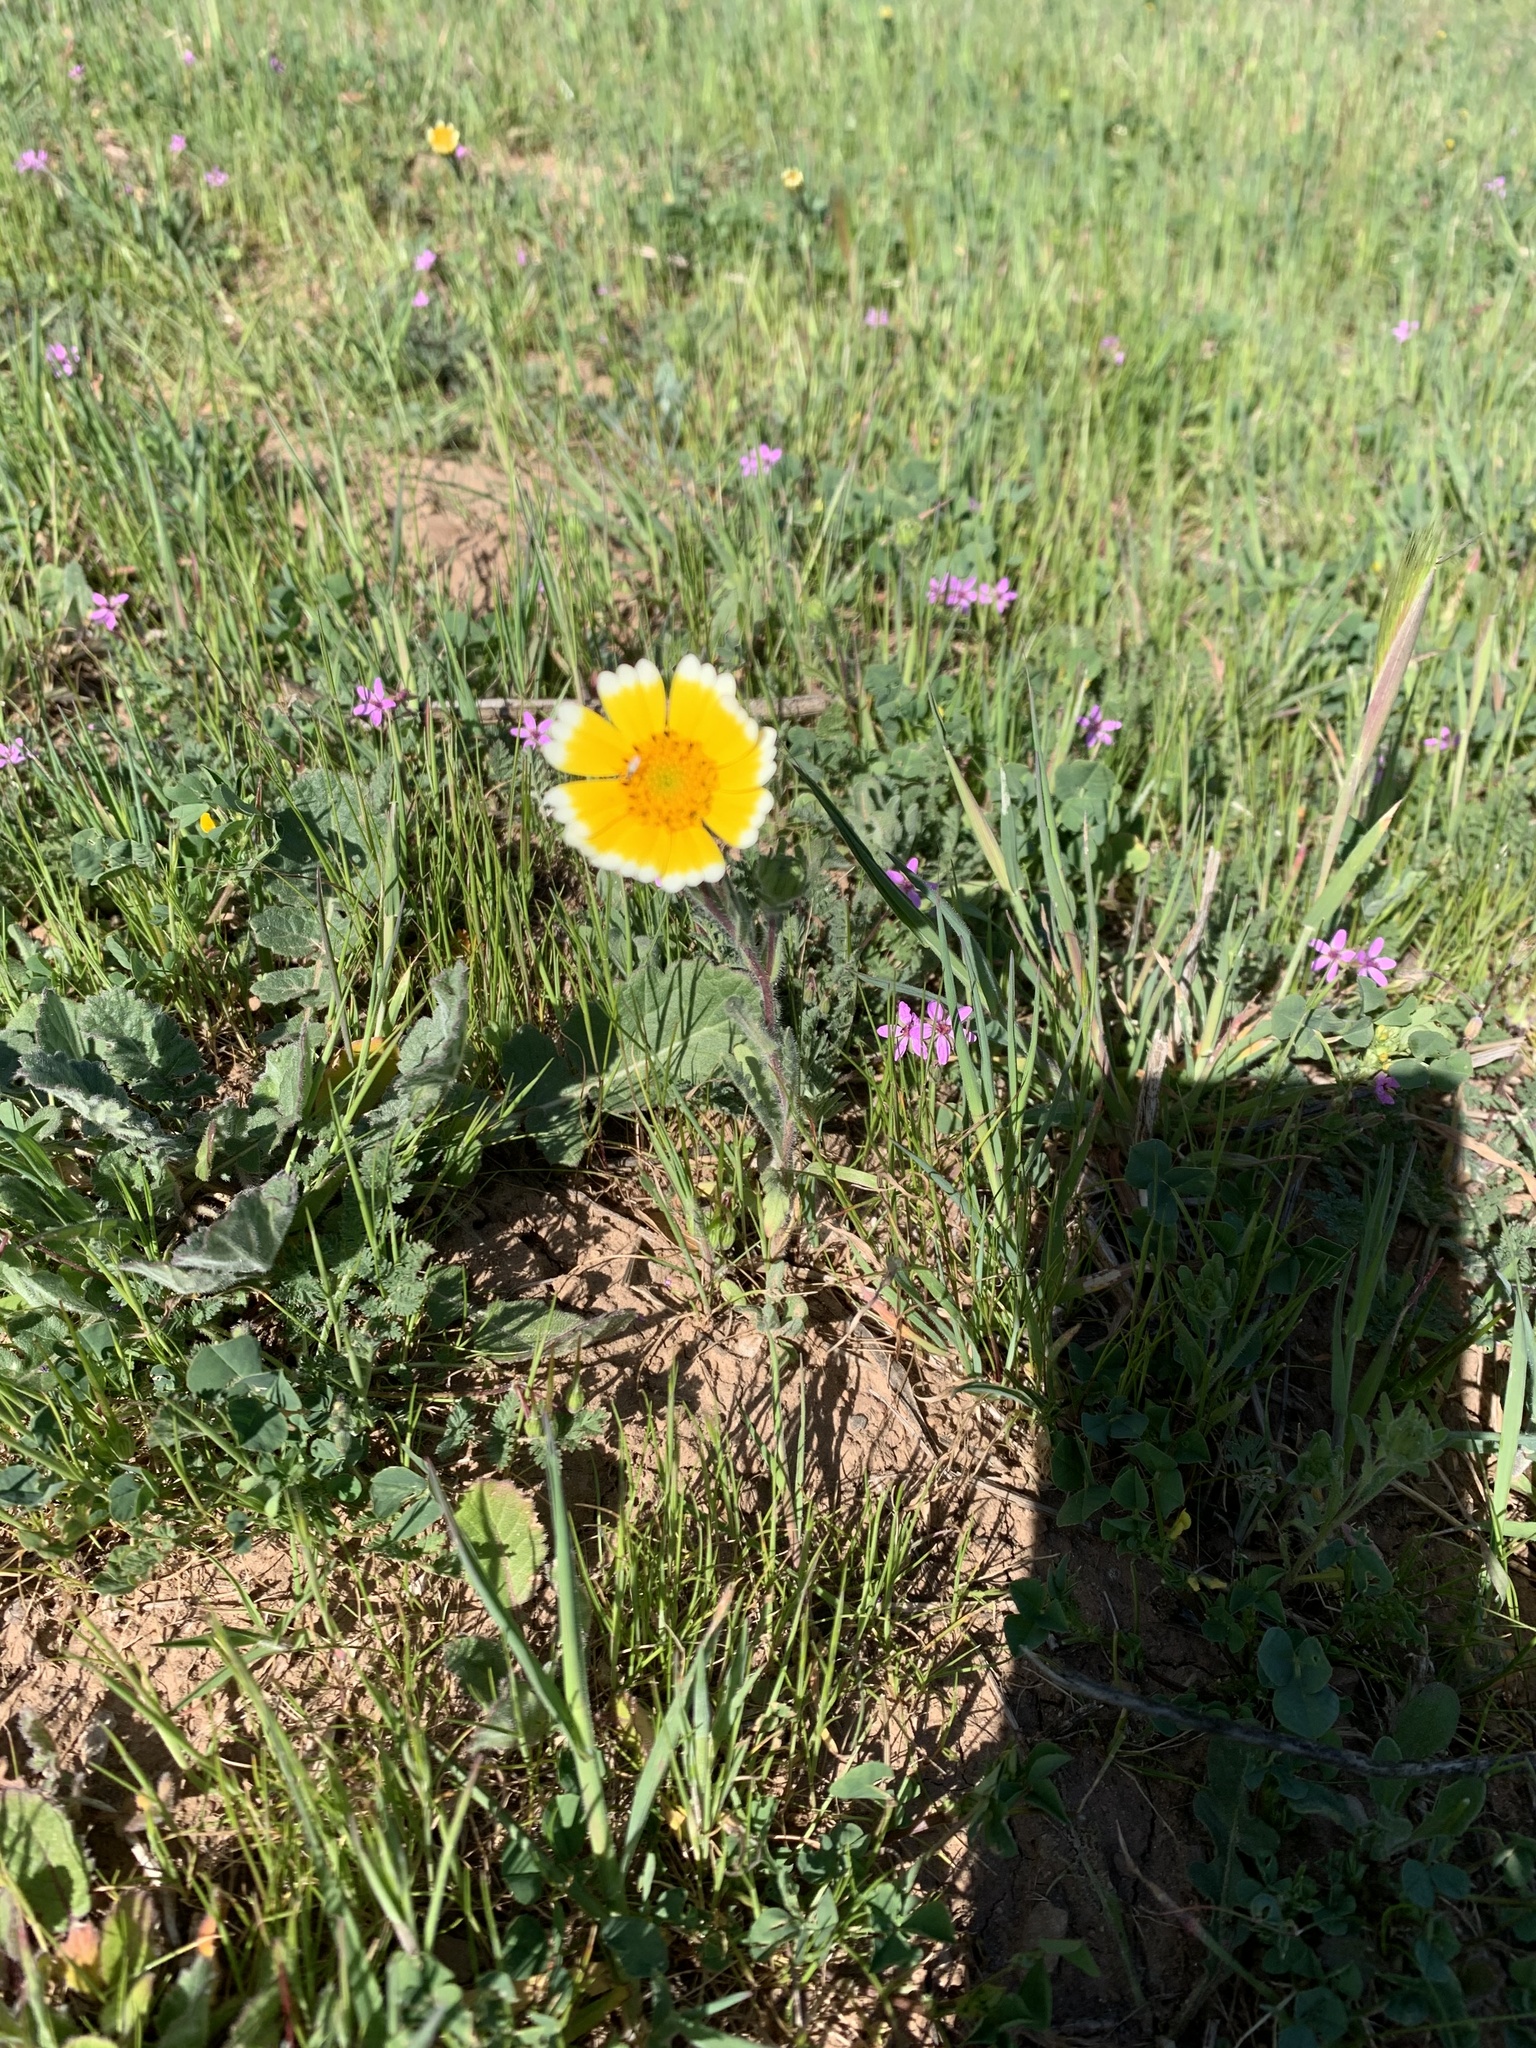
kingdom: Plantae
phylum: Tracheophyta
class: Magnoliopsida
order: Asterales
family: Asteraceae
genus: Layia
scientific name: Layia platyglossa
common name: Tidy-tips
